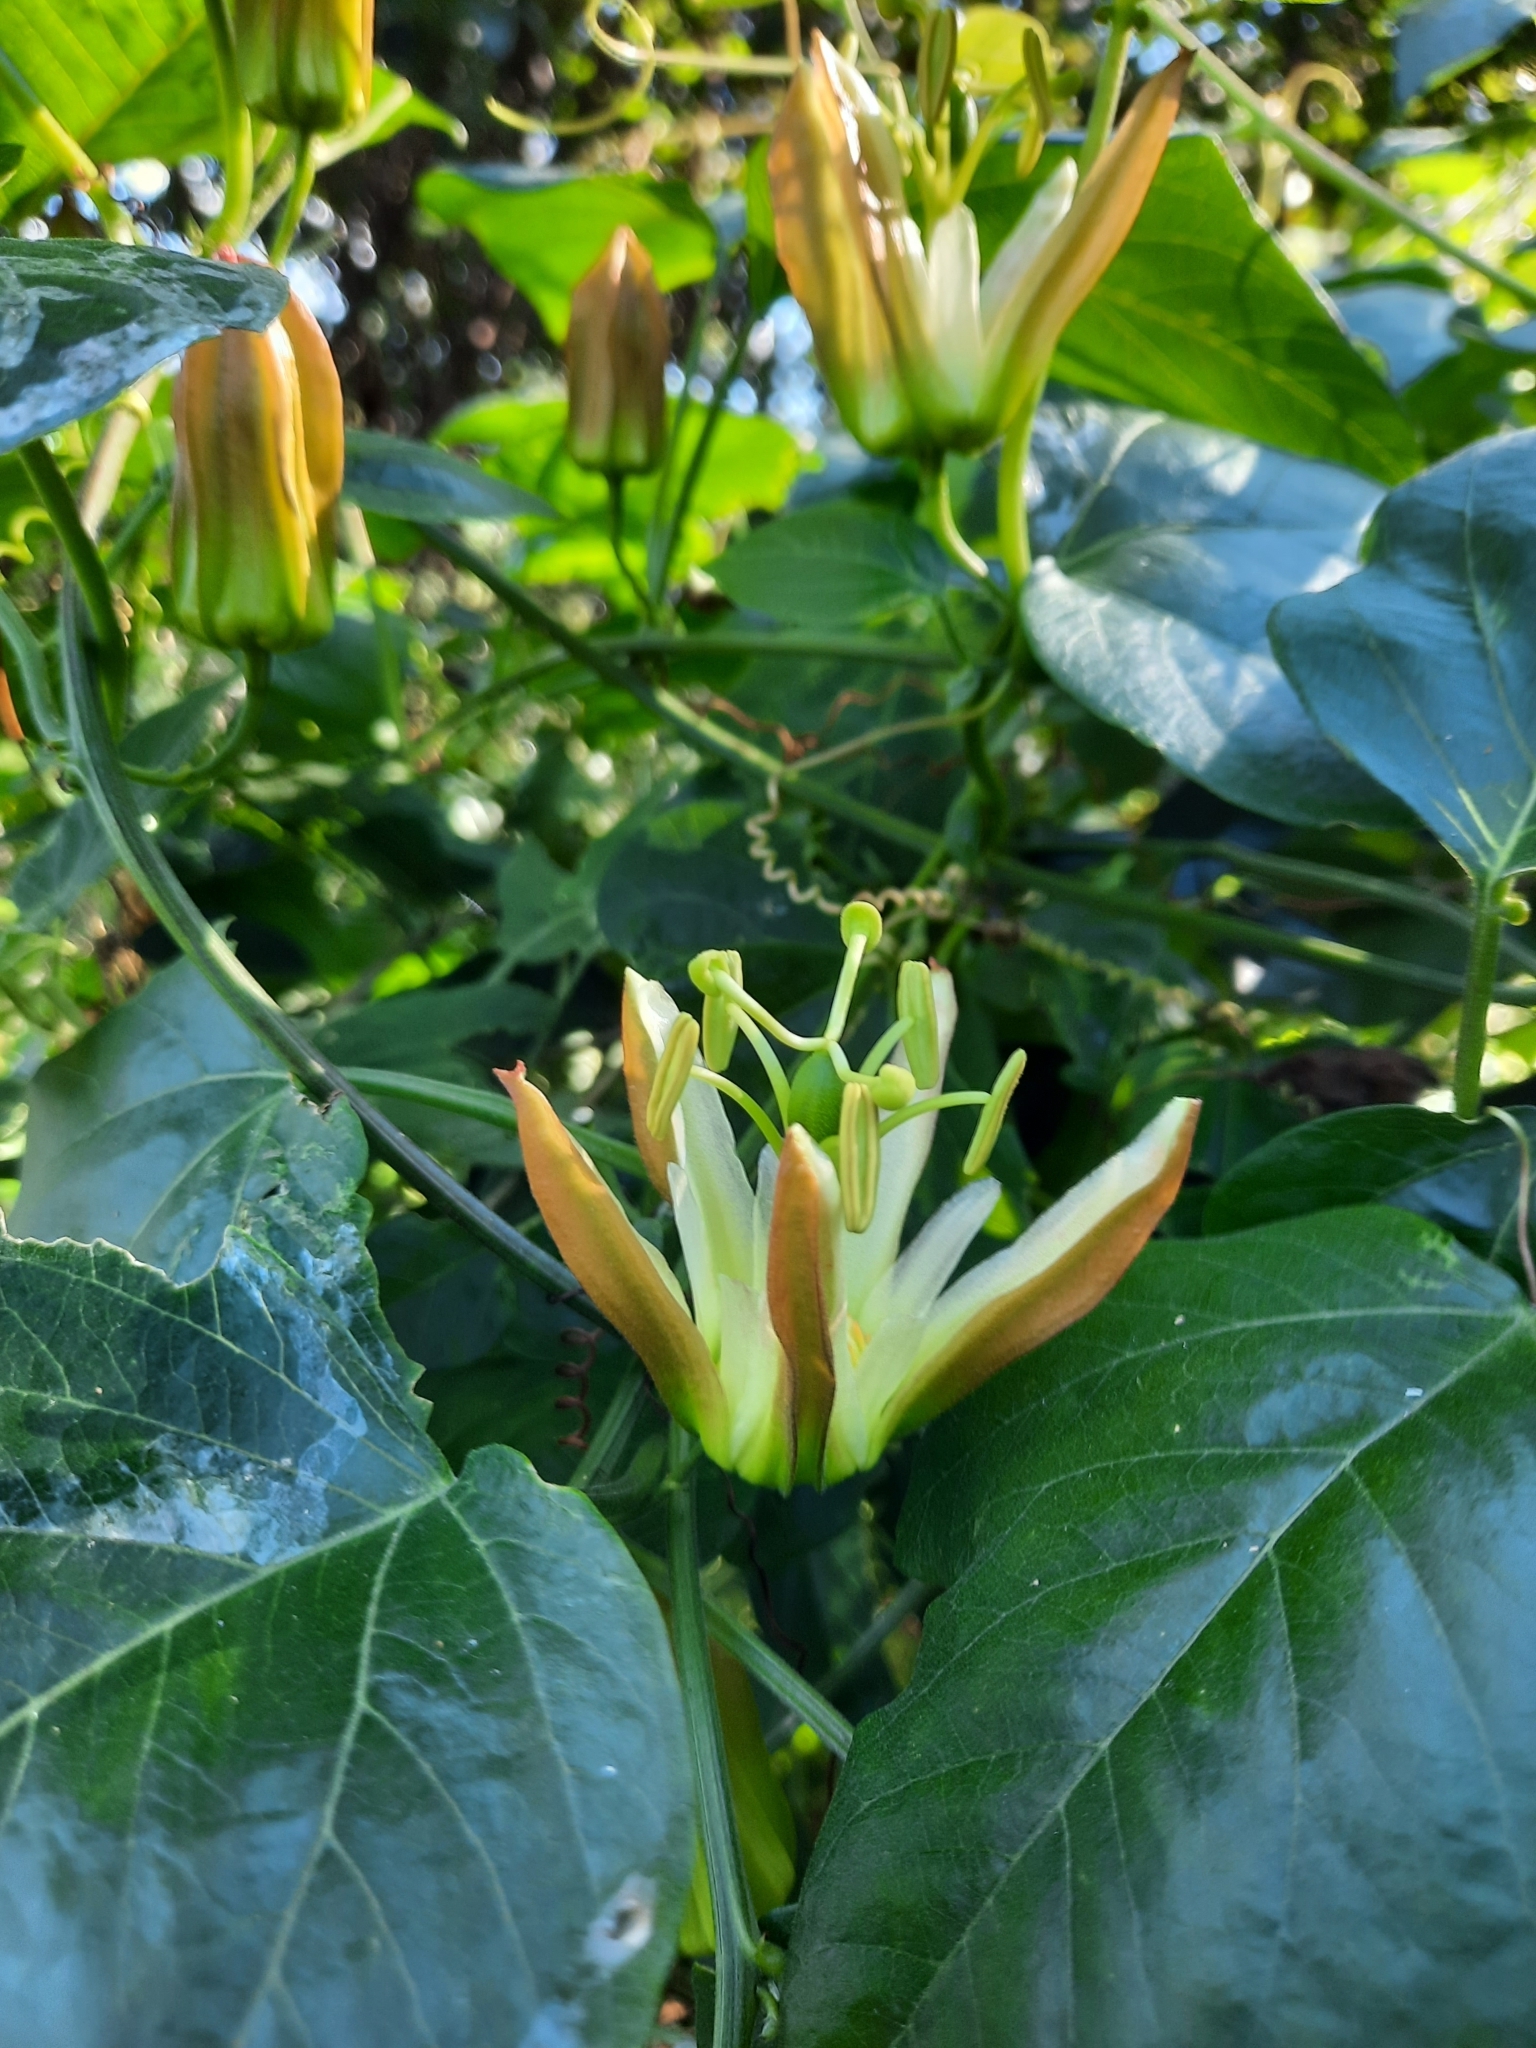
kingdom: Plantae
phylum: Tracheophyta
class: Magnoliopsida
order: Malpighiales
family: Passifloraceae
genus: Passiflora
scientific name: Passiflora herbertiana
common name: Yellow passionflower
